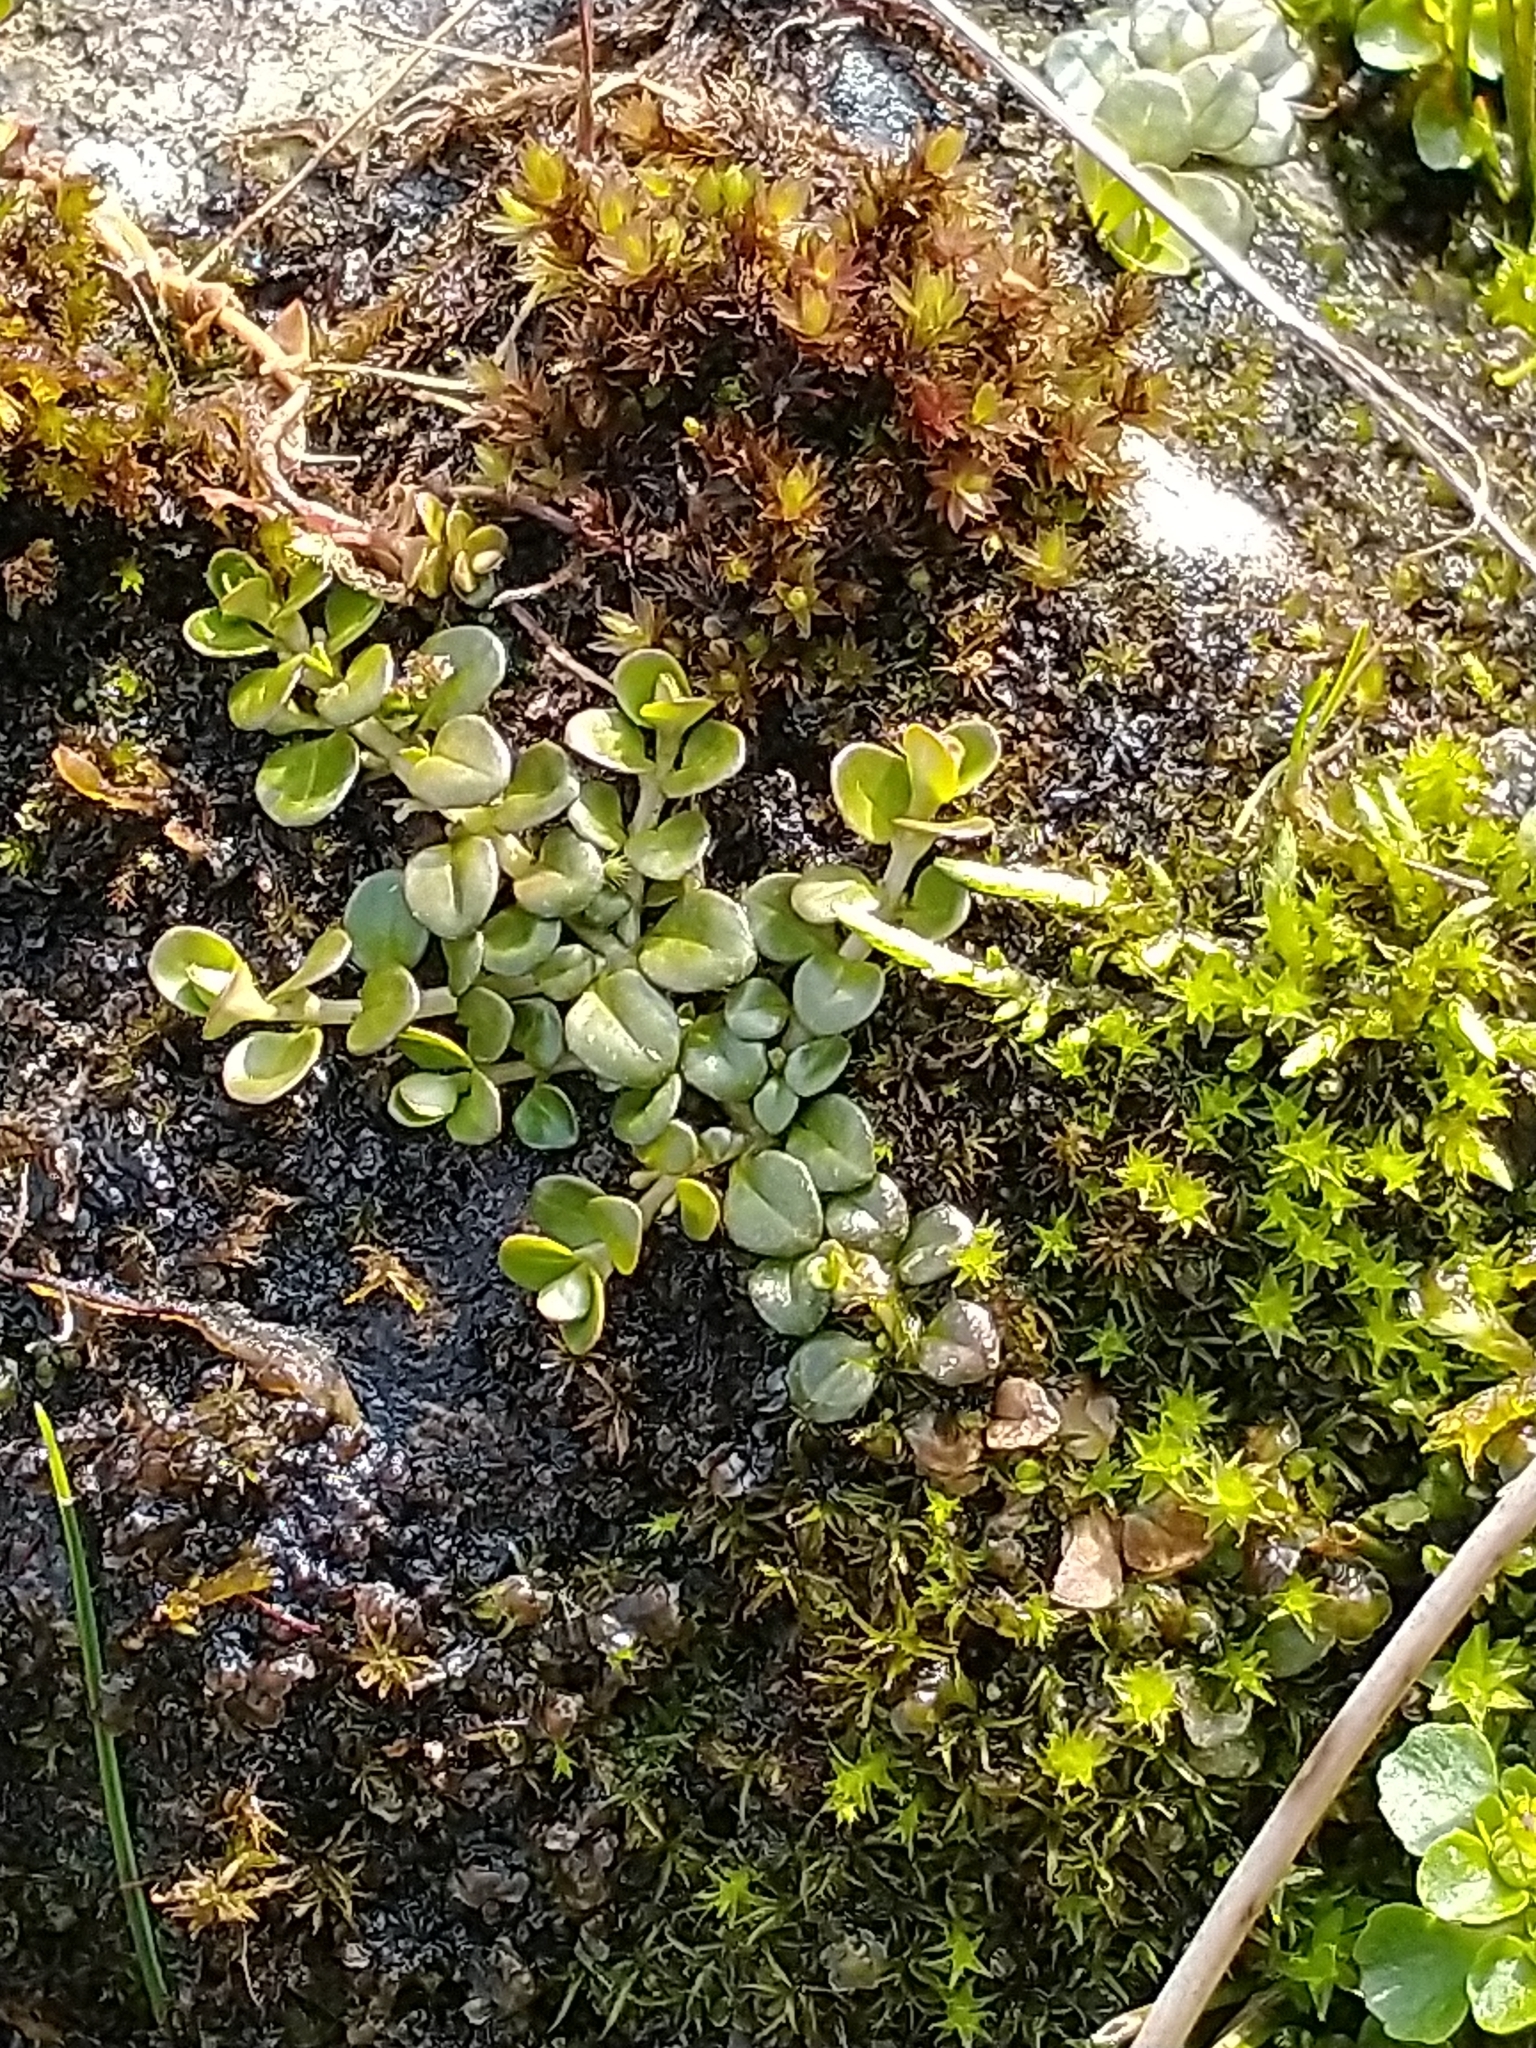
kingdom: Plantae
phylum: Tracheophyta
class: Magnoliopsida
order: Myrtales
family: Onagraceae
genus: Epilobium
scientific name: Epilobium brunnescens
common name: New zealand willowherb
